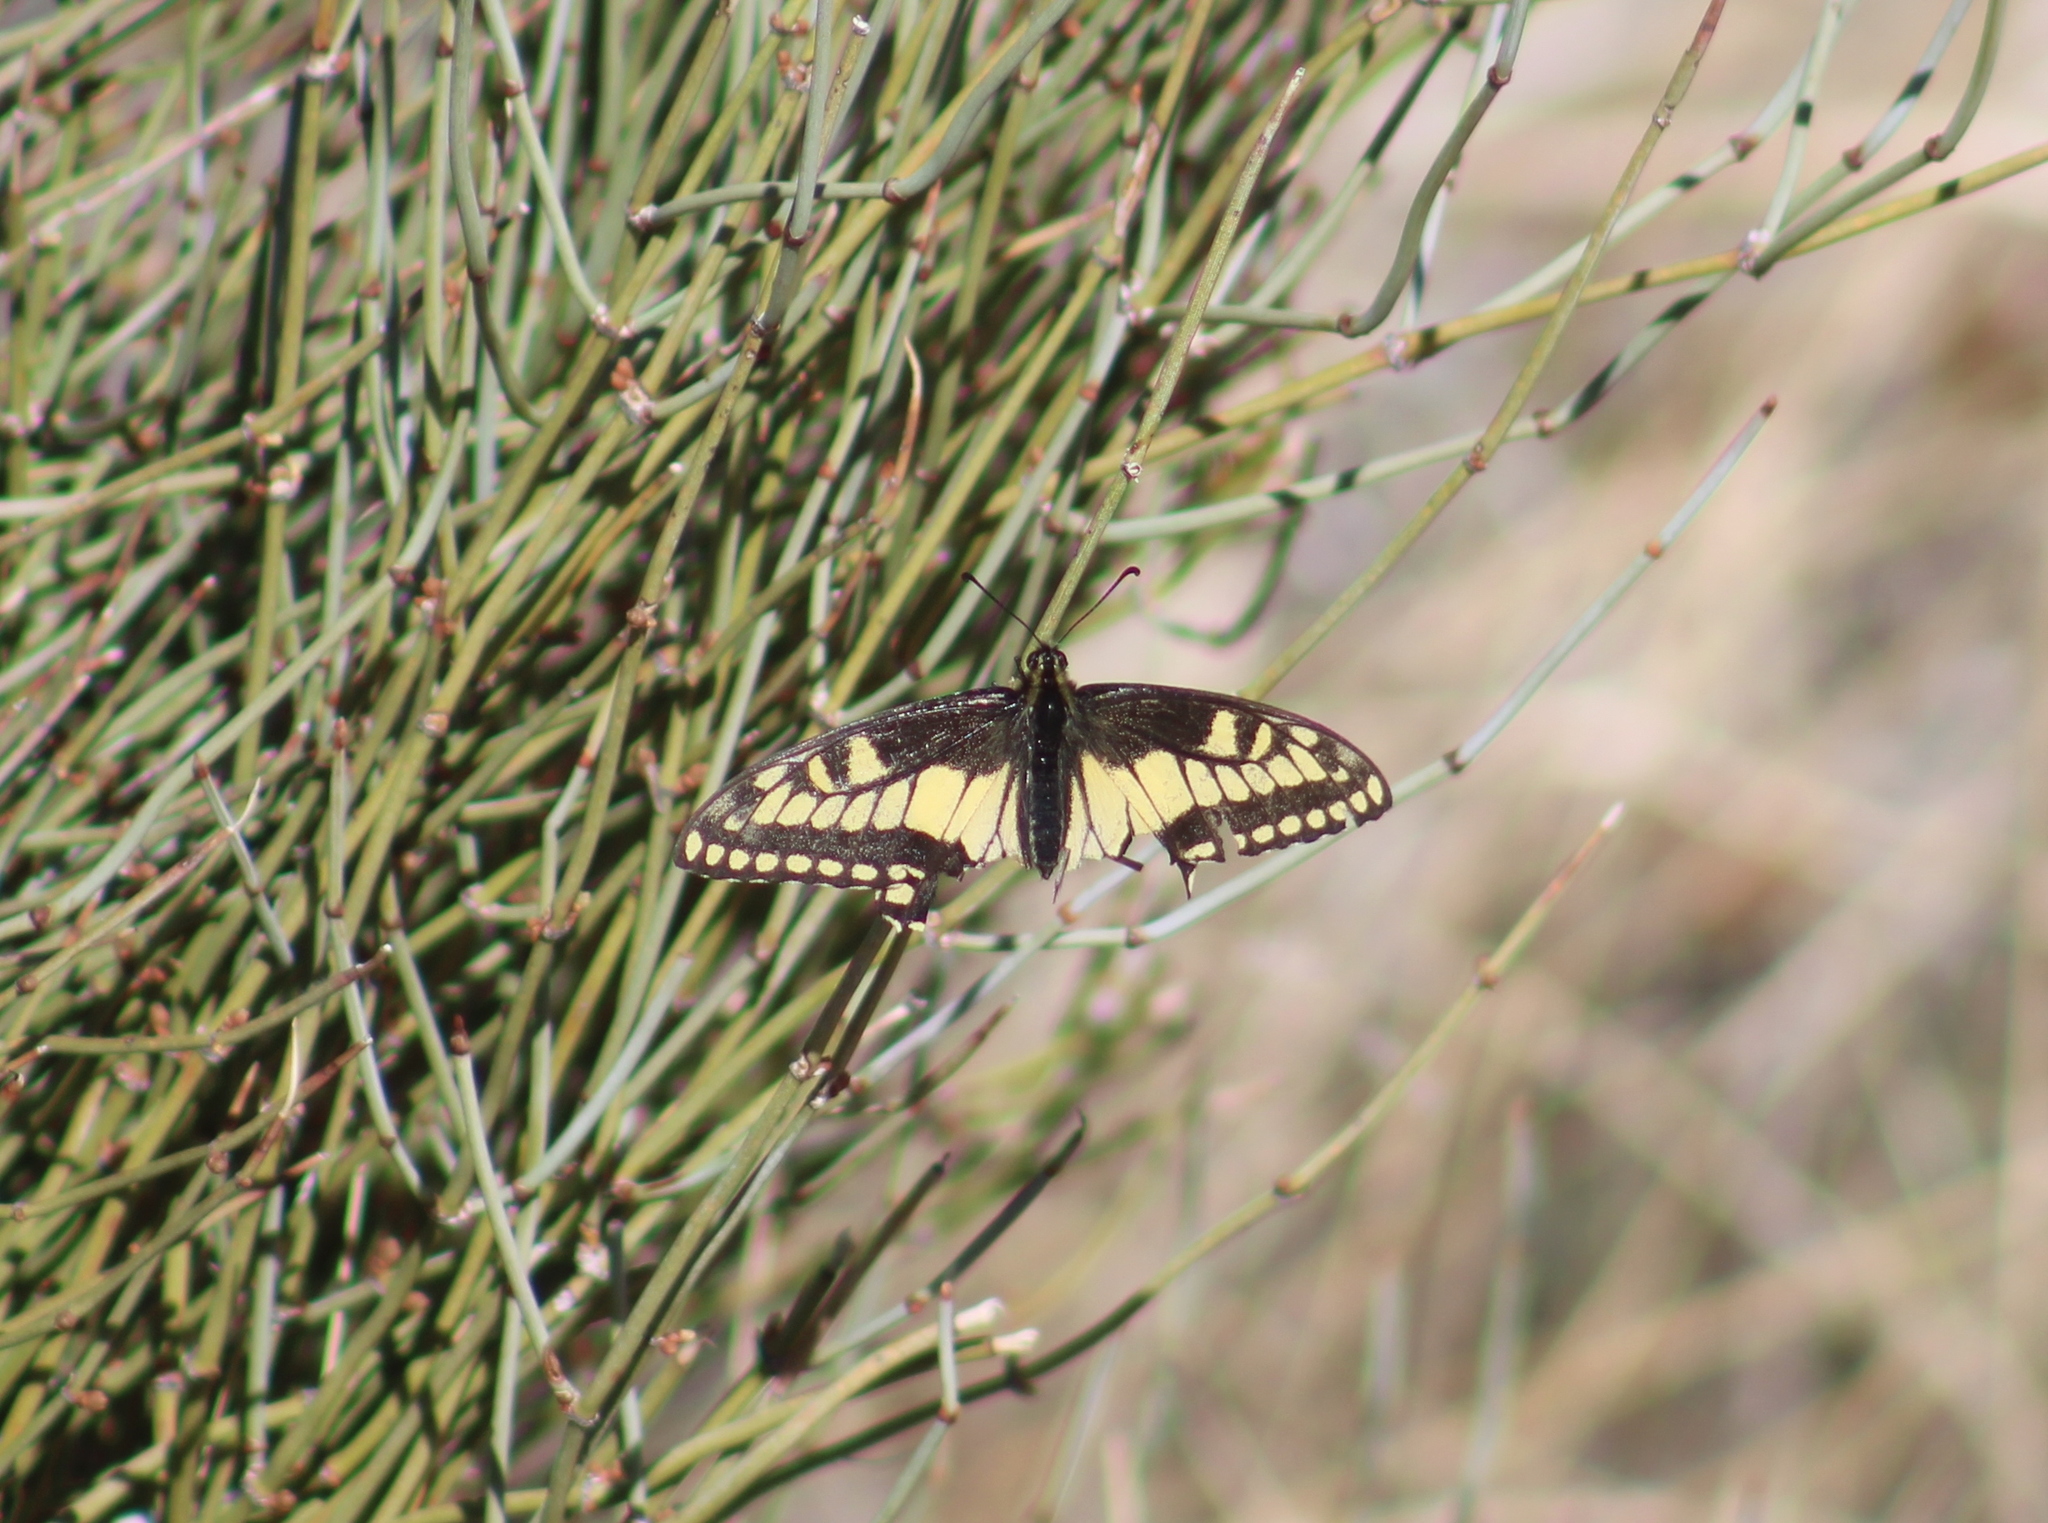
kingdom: Animalia
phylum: Arthropoda
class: Insecta
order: Lepidoptera
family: Papilionidae
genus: Papilio
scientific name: Papilio polyxenes
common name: Black swallowtail
